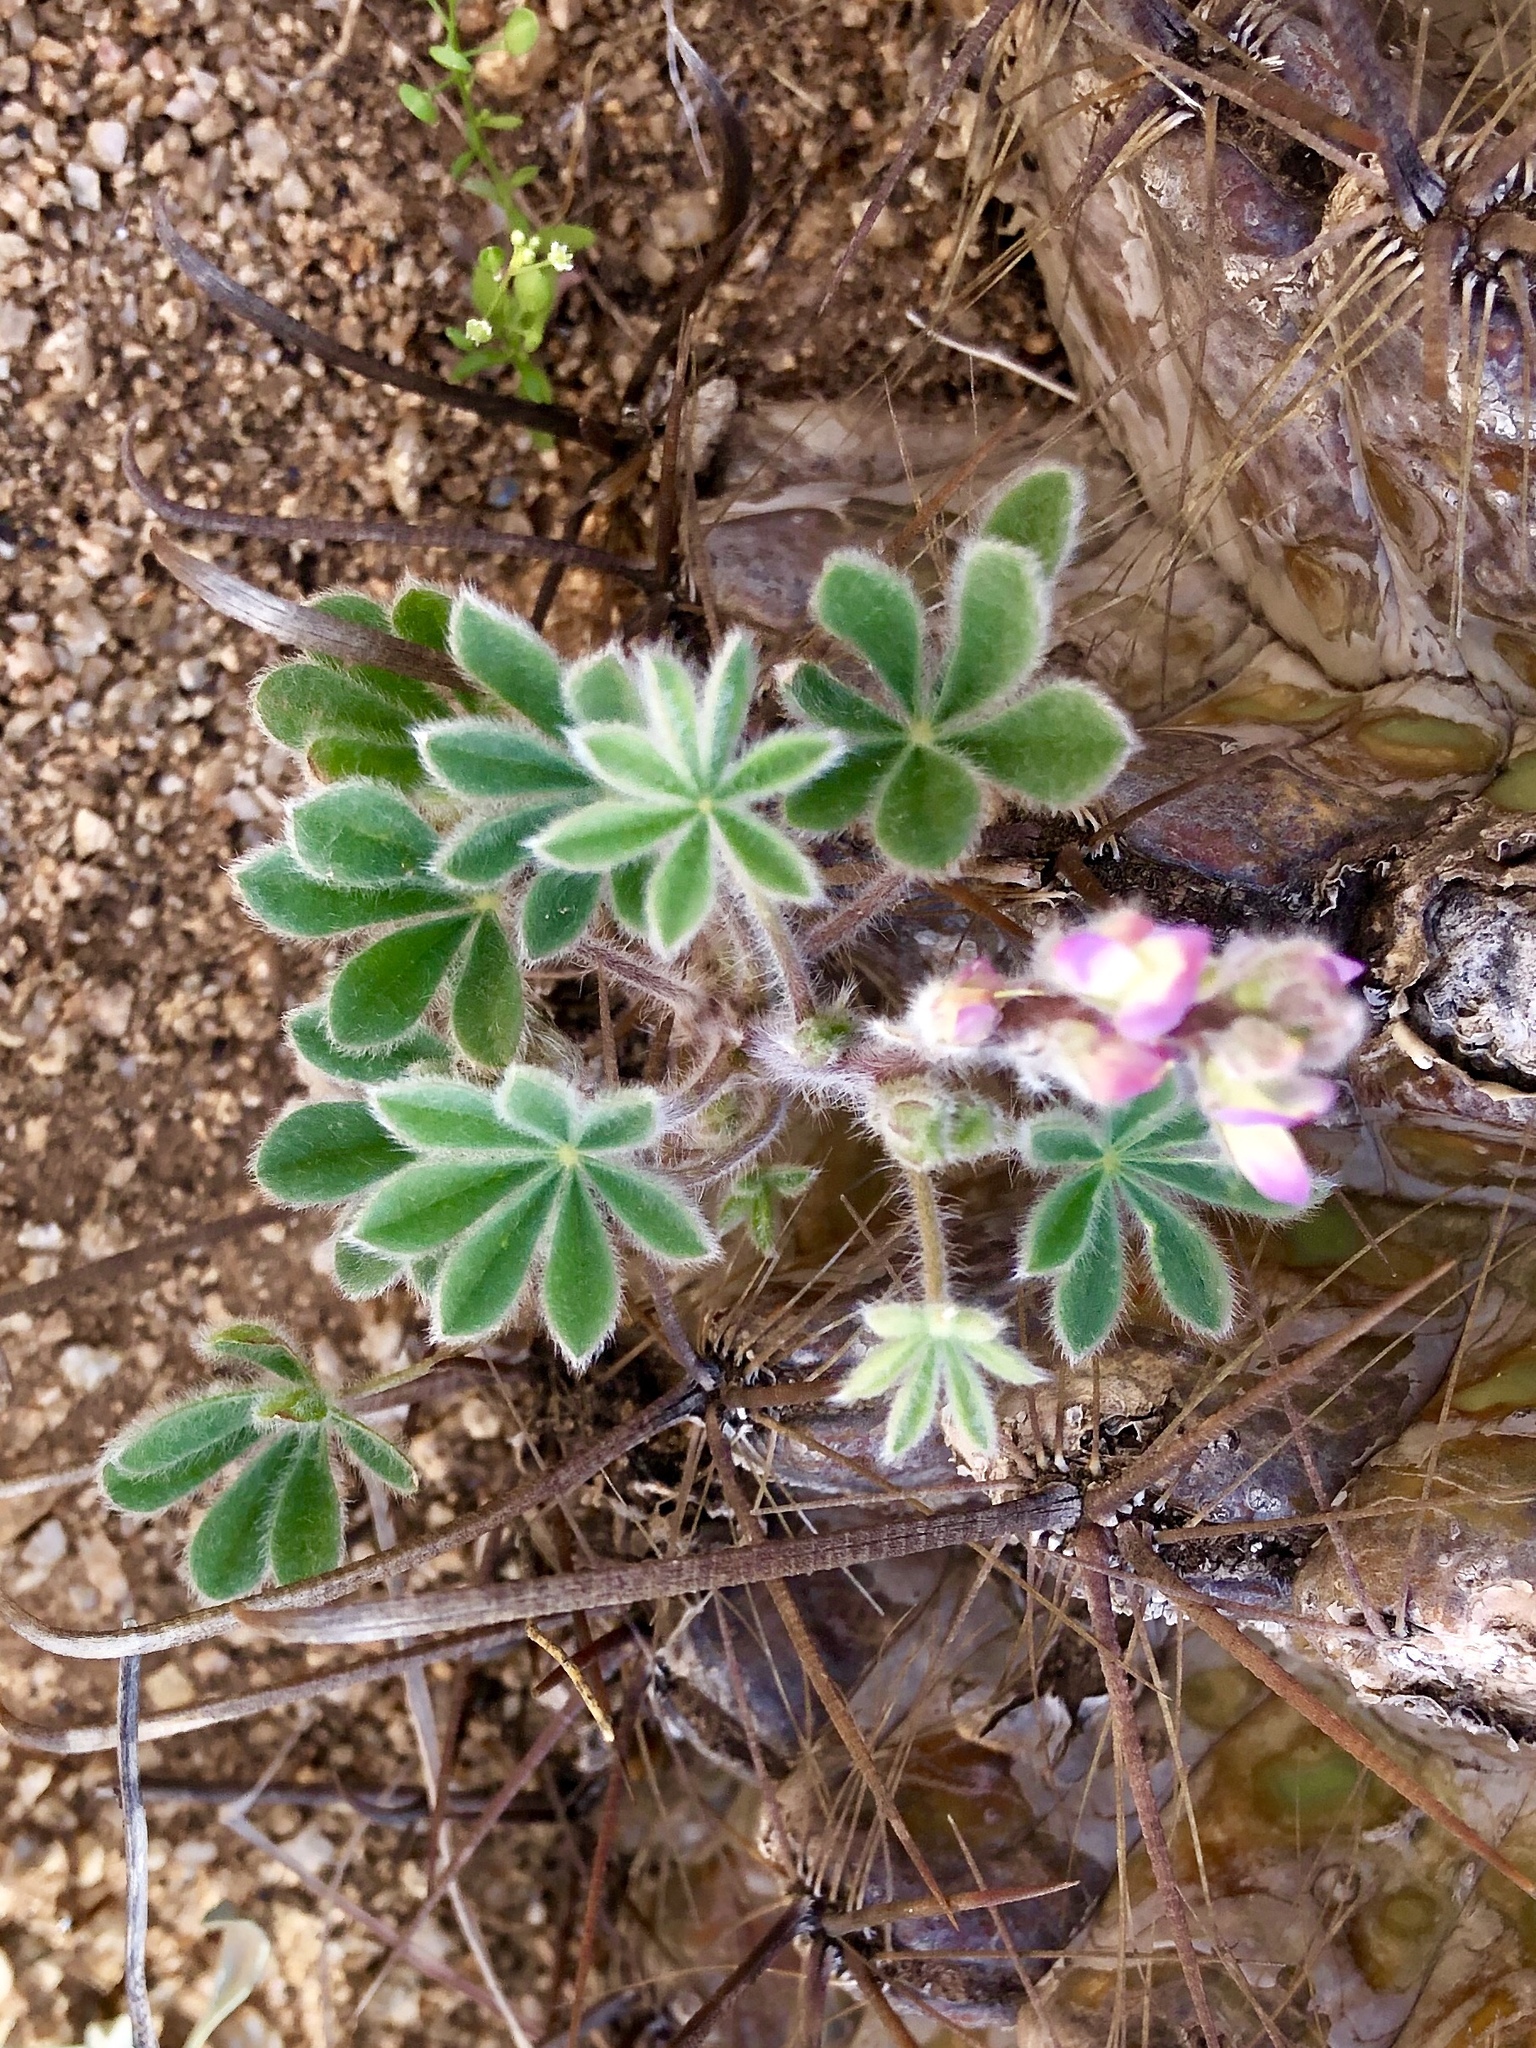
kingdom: Plantae
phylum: Tracheophyta
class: Magnoliopsida
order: Fabales
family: Fabaceae
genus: Lupinus
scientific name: Lupinus concinnus
